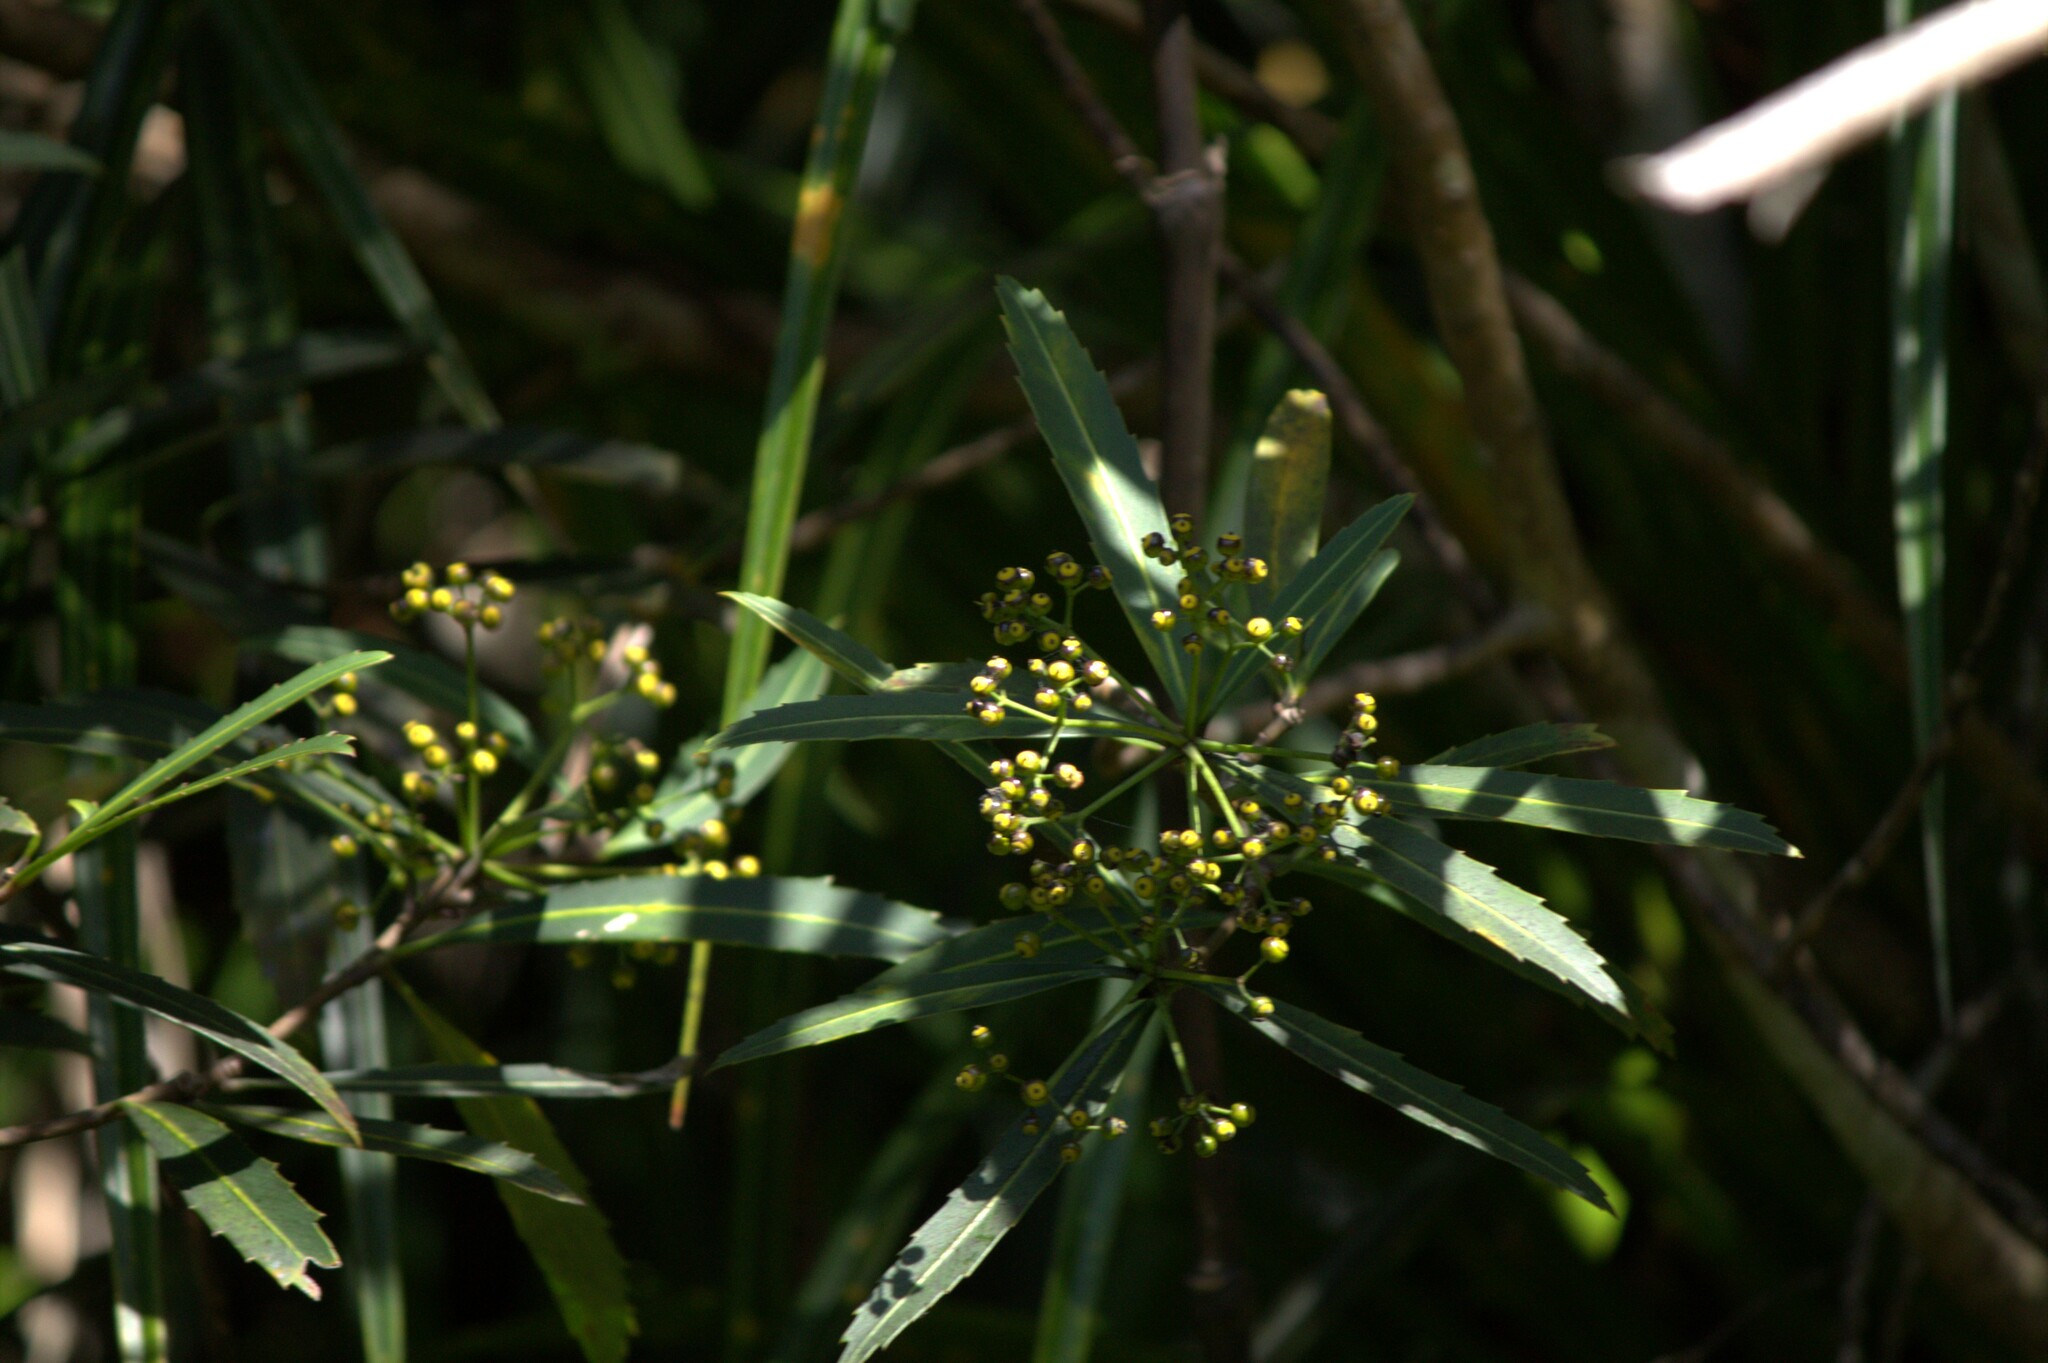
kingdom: Plantae
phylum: Tracheophyta
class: Magnoliopsida
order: Apiales
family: Araliaceae
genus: Pseudopanax
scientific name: Pseudopanax crassifolius
